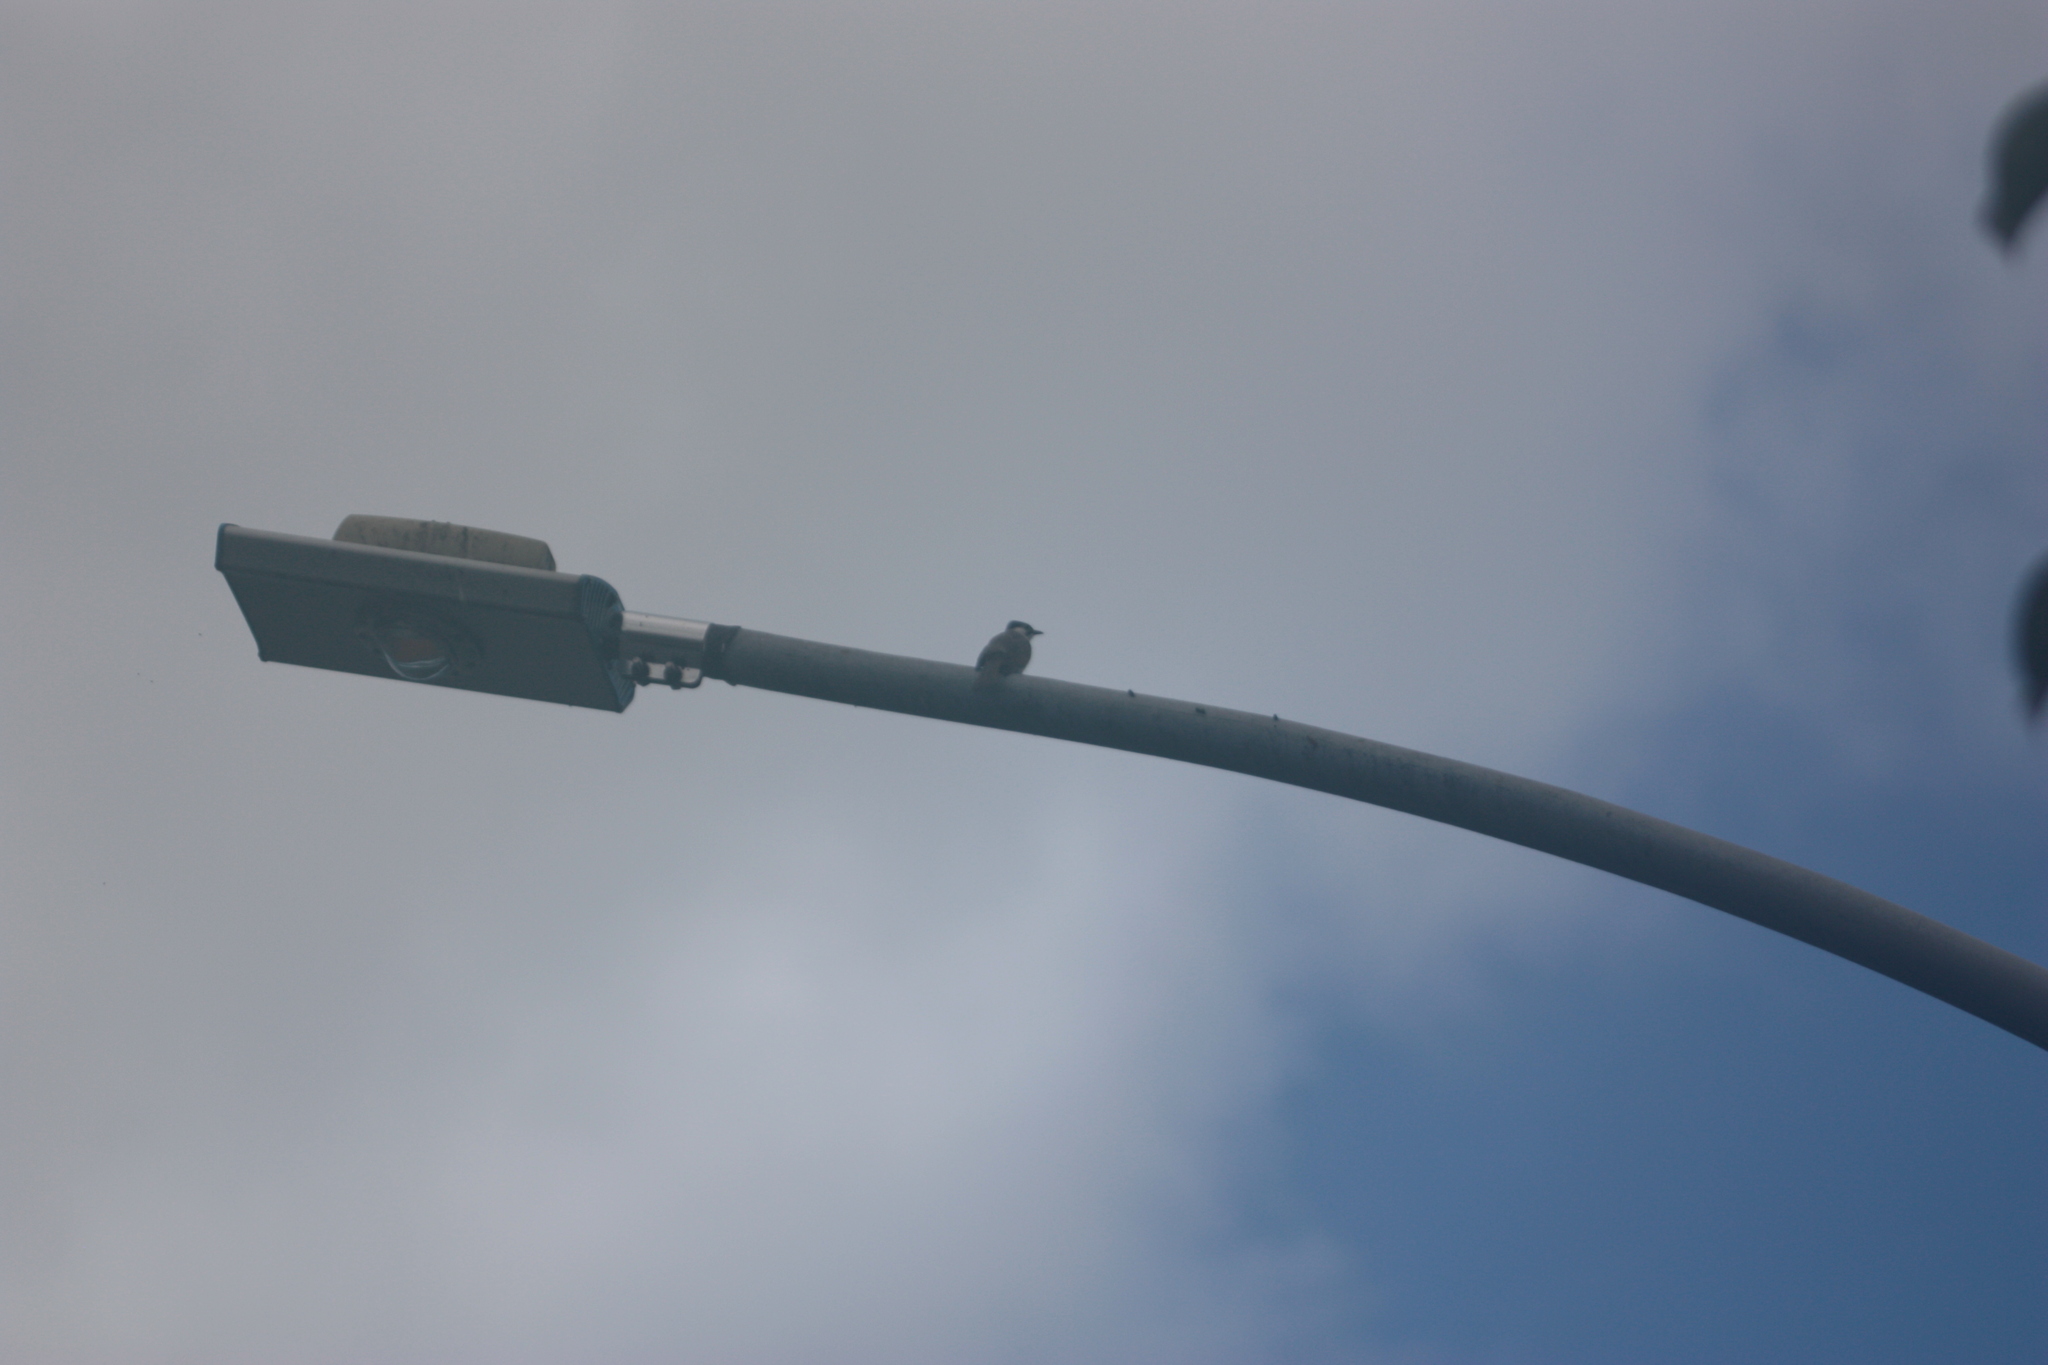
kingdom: Animalia
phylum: Chordata
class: Aves
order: Passeriformes
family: Pycnonotidae
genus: Pycnonotus
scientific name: Pycnonotus taivanus
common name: Styan's bulbul
